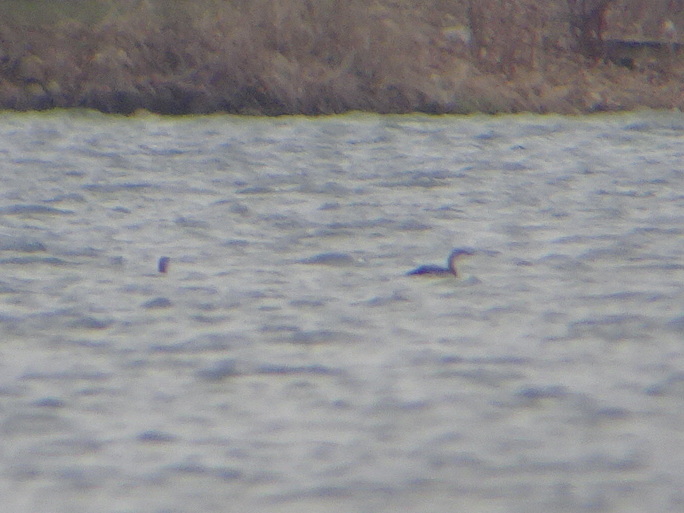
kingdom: Animalia
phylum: Chordata
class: Aves
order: Gaviiformes
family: Gaviidae
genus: Gavia
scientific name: Gavia stellata
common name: Red-throated loon
